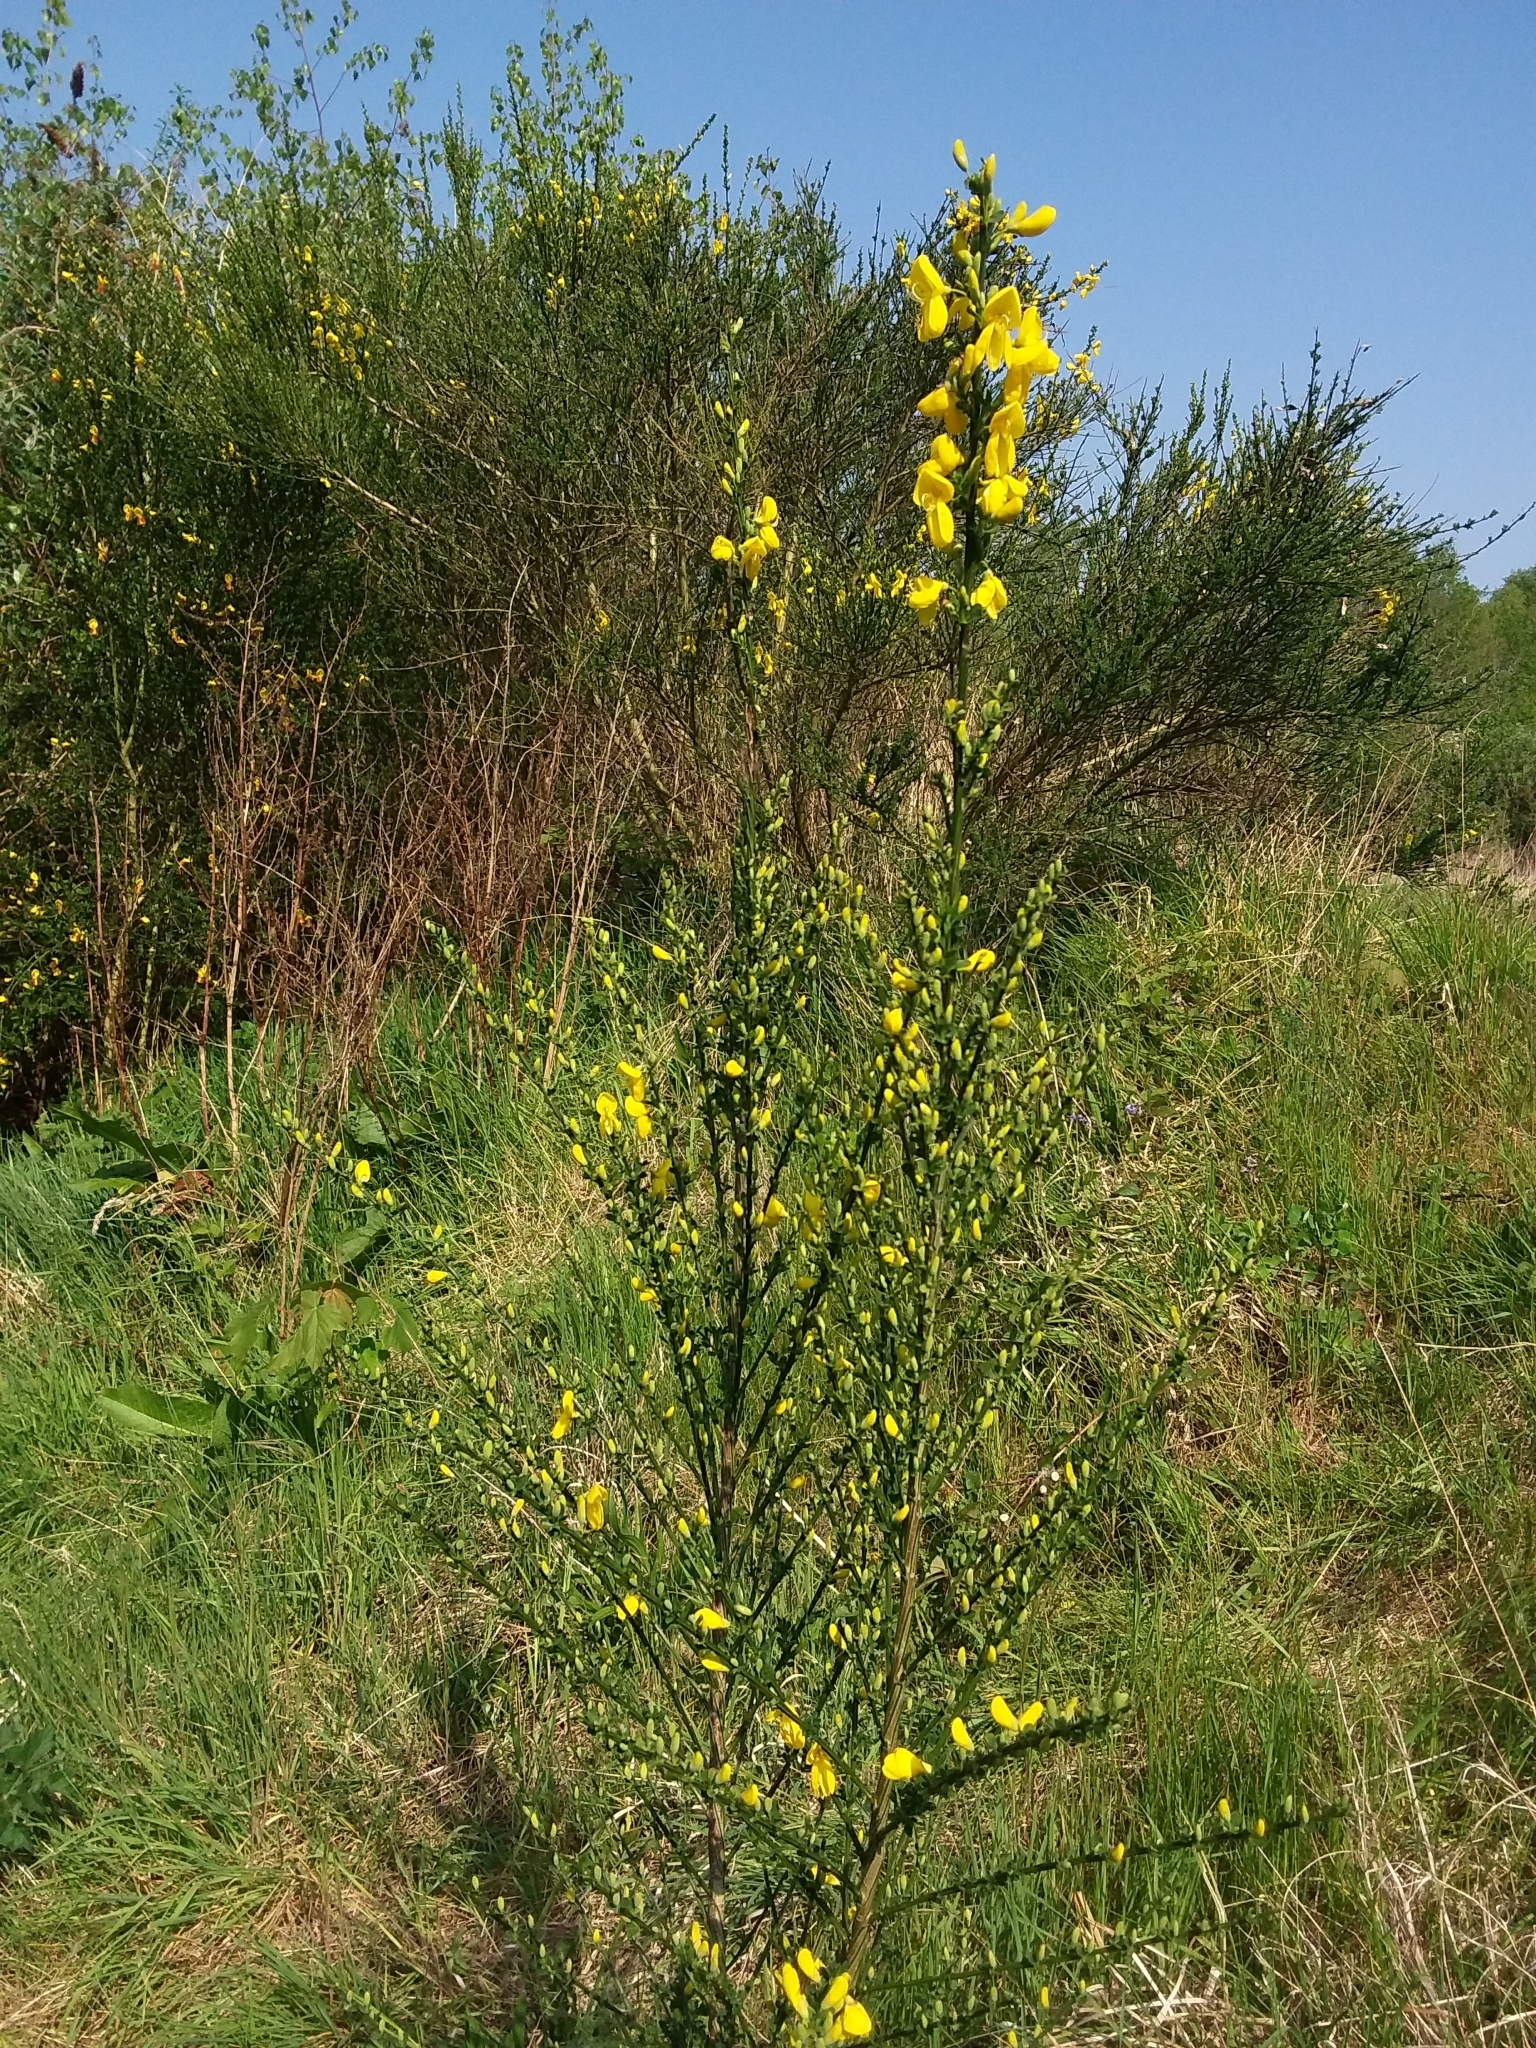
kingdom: Plantae
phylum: Tracheophyta
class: Magnoliopsida
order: Fabales
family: Fabaceae
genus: Cytisus
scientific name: Cytisus scoparius
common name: Scotch broom
